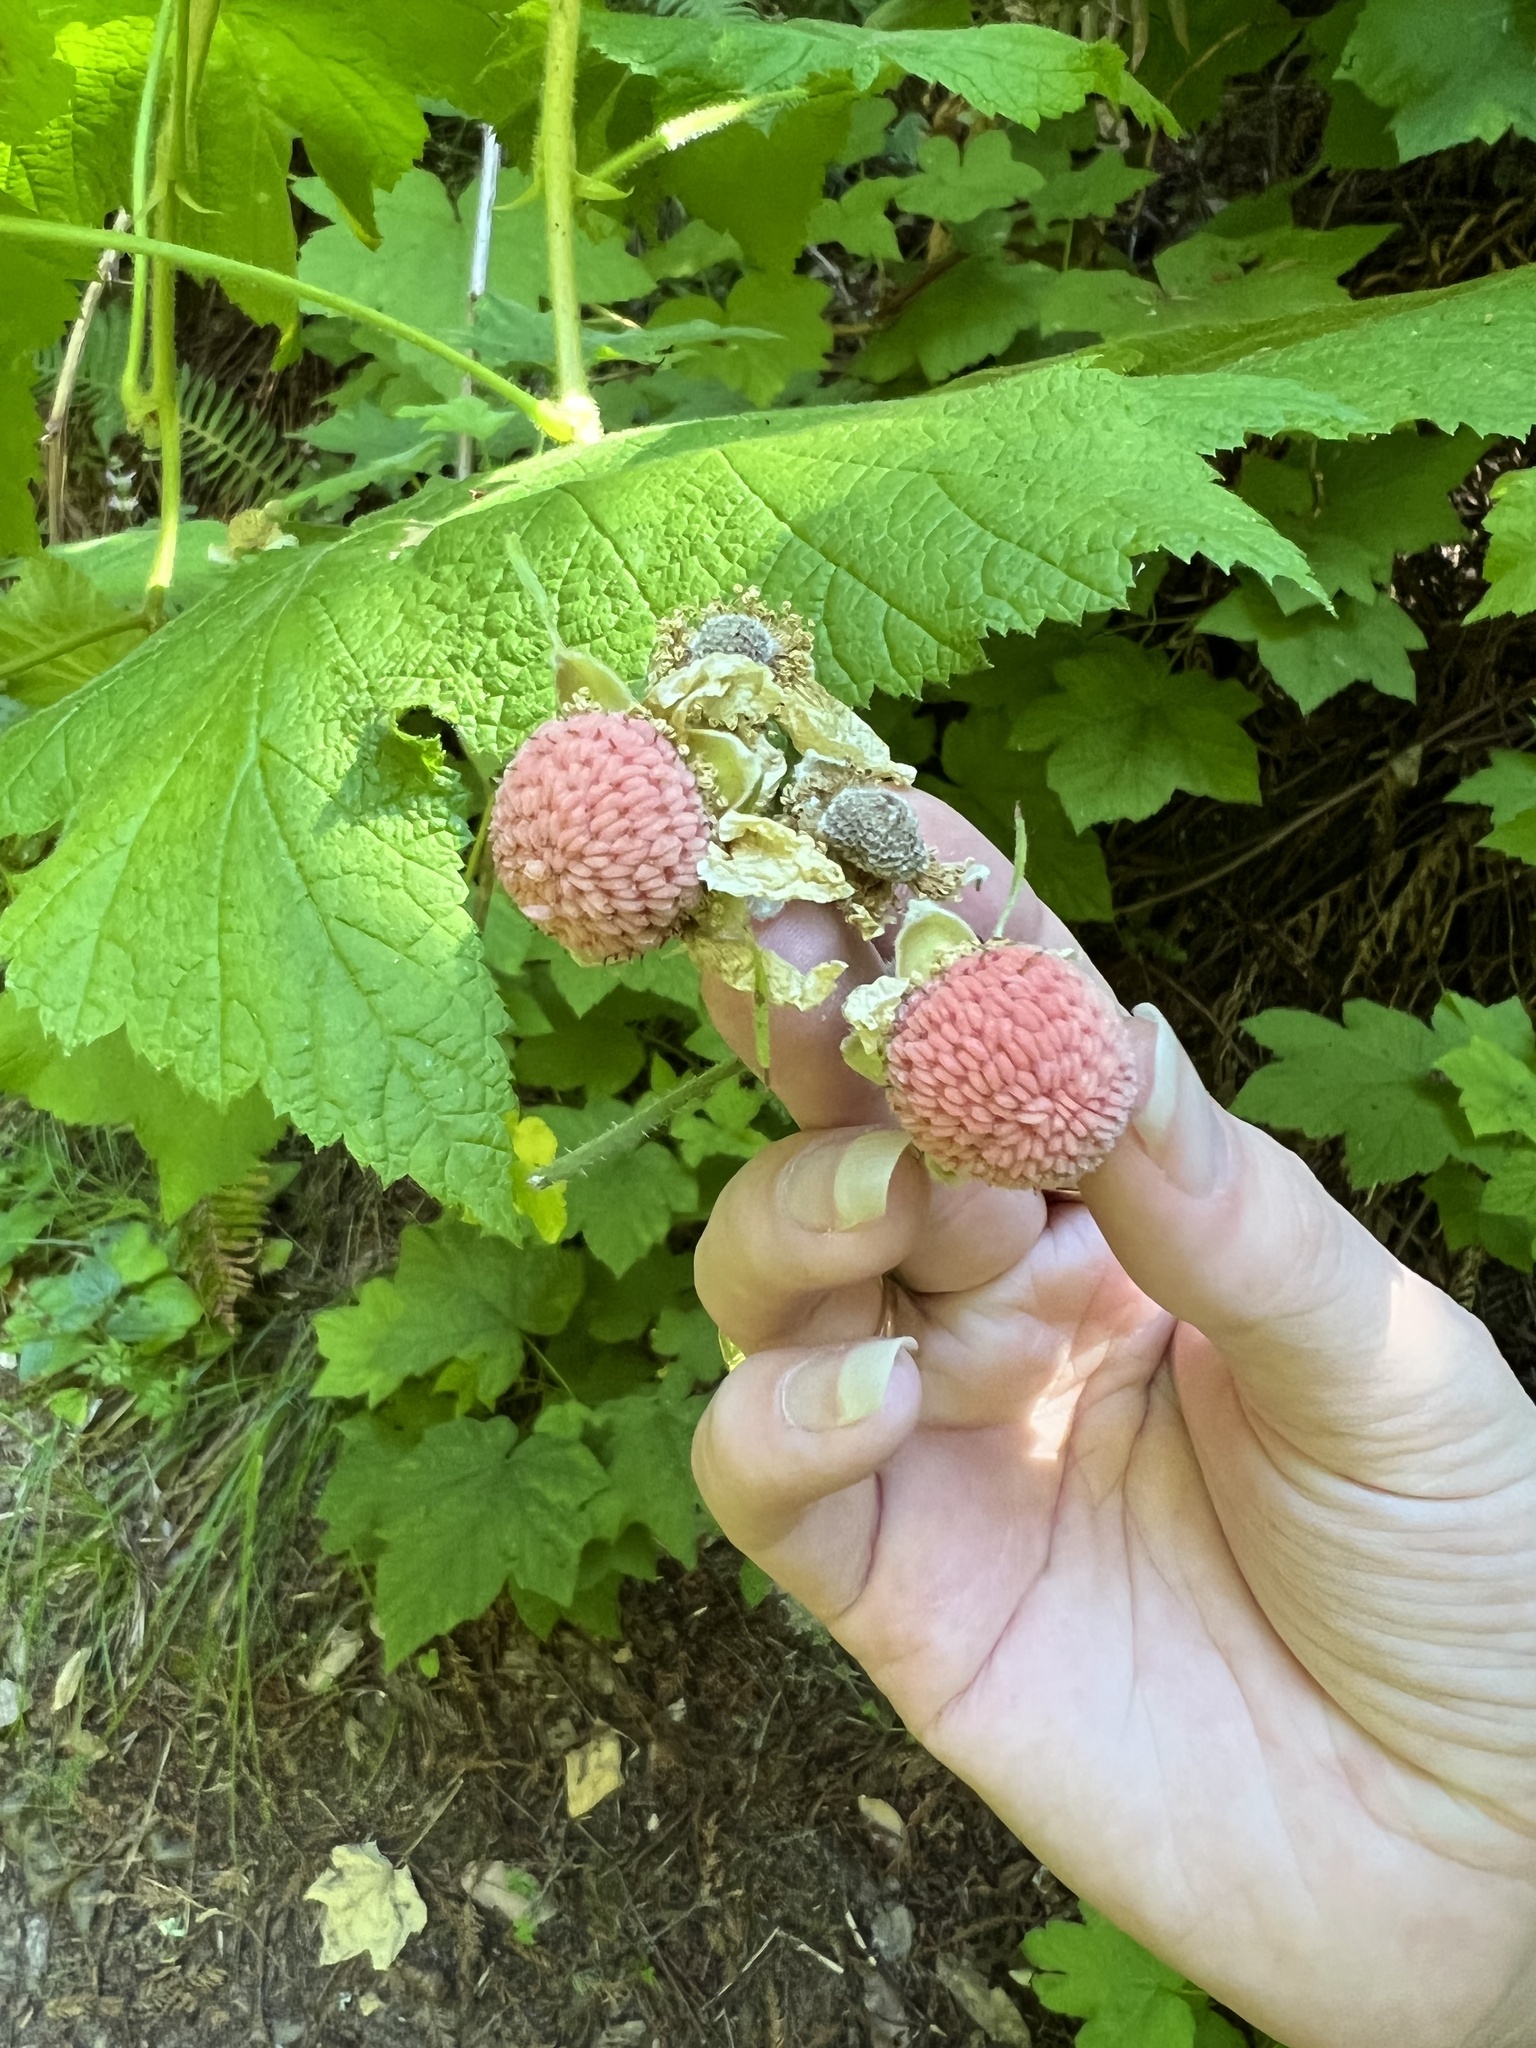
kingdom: Plantae
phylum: Tracheophyta
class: Magnoliopsida
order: Rosales
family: Rosaceae
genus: Rubus
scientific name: Rubus parviflorus
